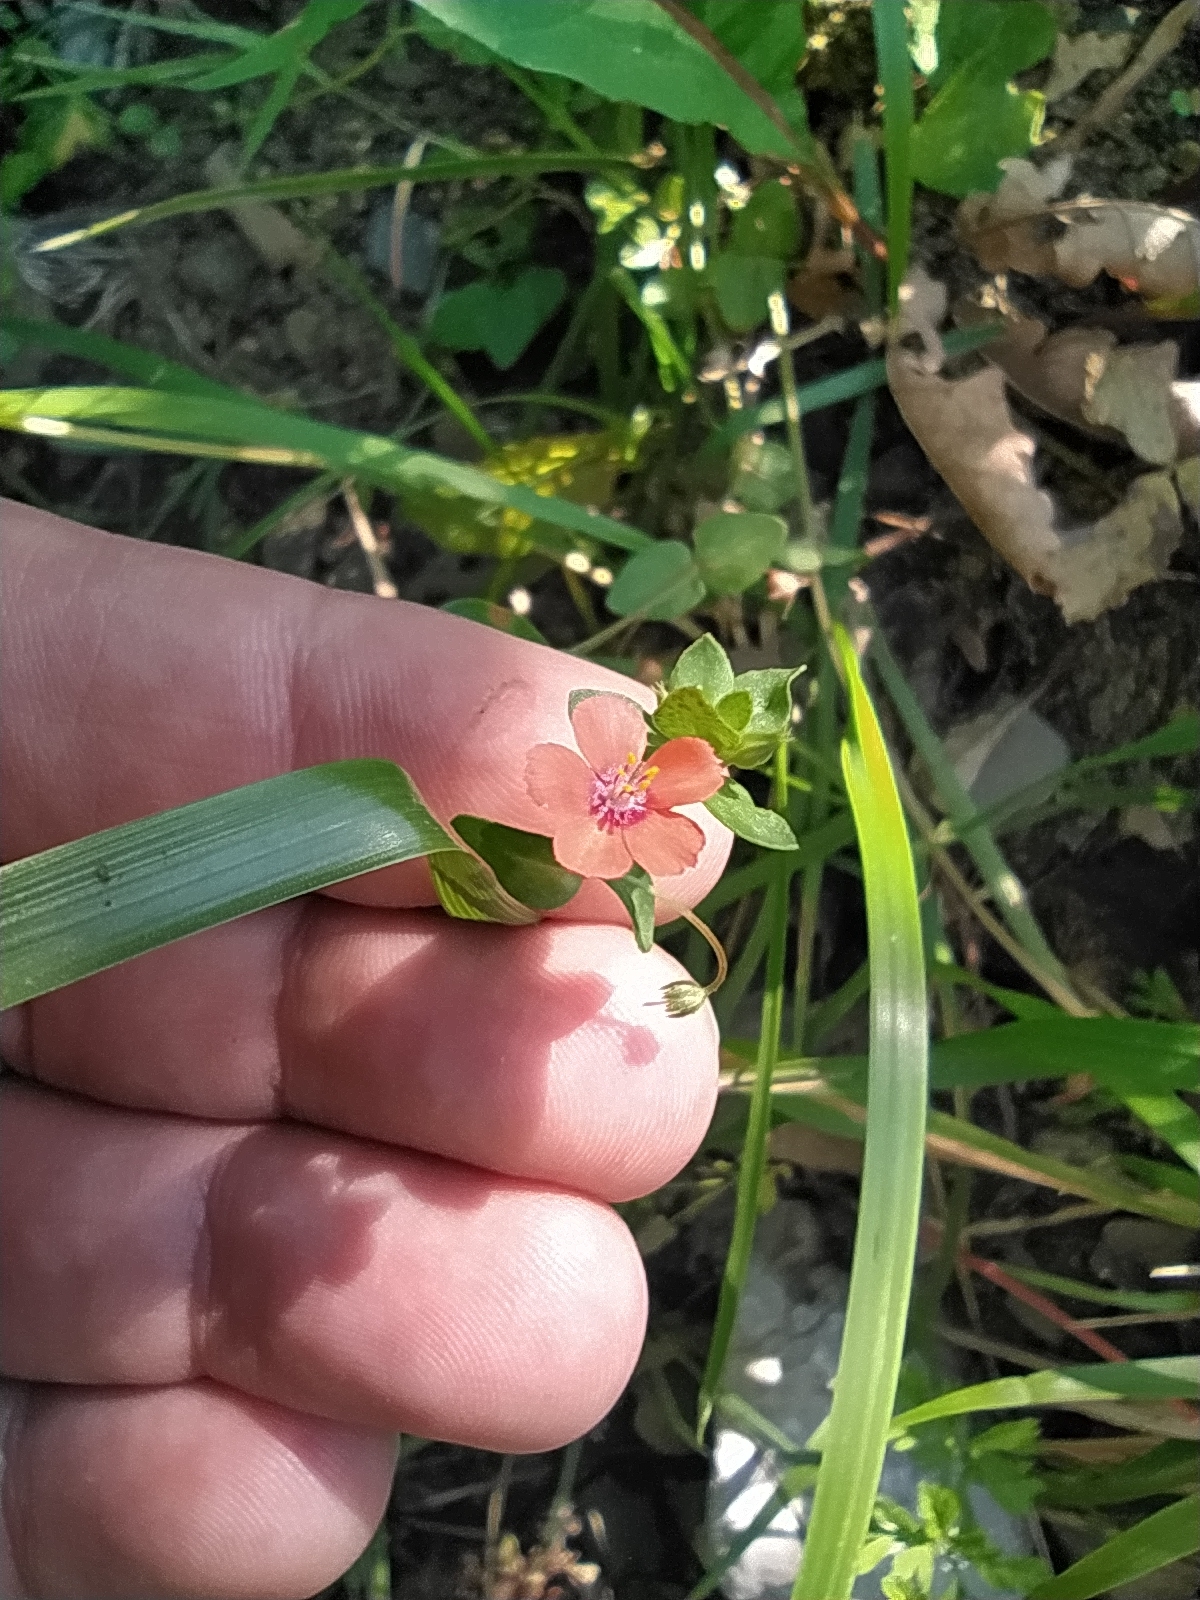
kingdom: Plantae
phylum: Tracheophyta
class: Magnoliopsida
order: Ericales
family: Primulaceae
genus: Lysimachia
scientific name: Lysimachia arvensis
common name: Scarlet pimpernel
